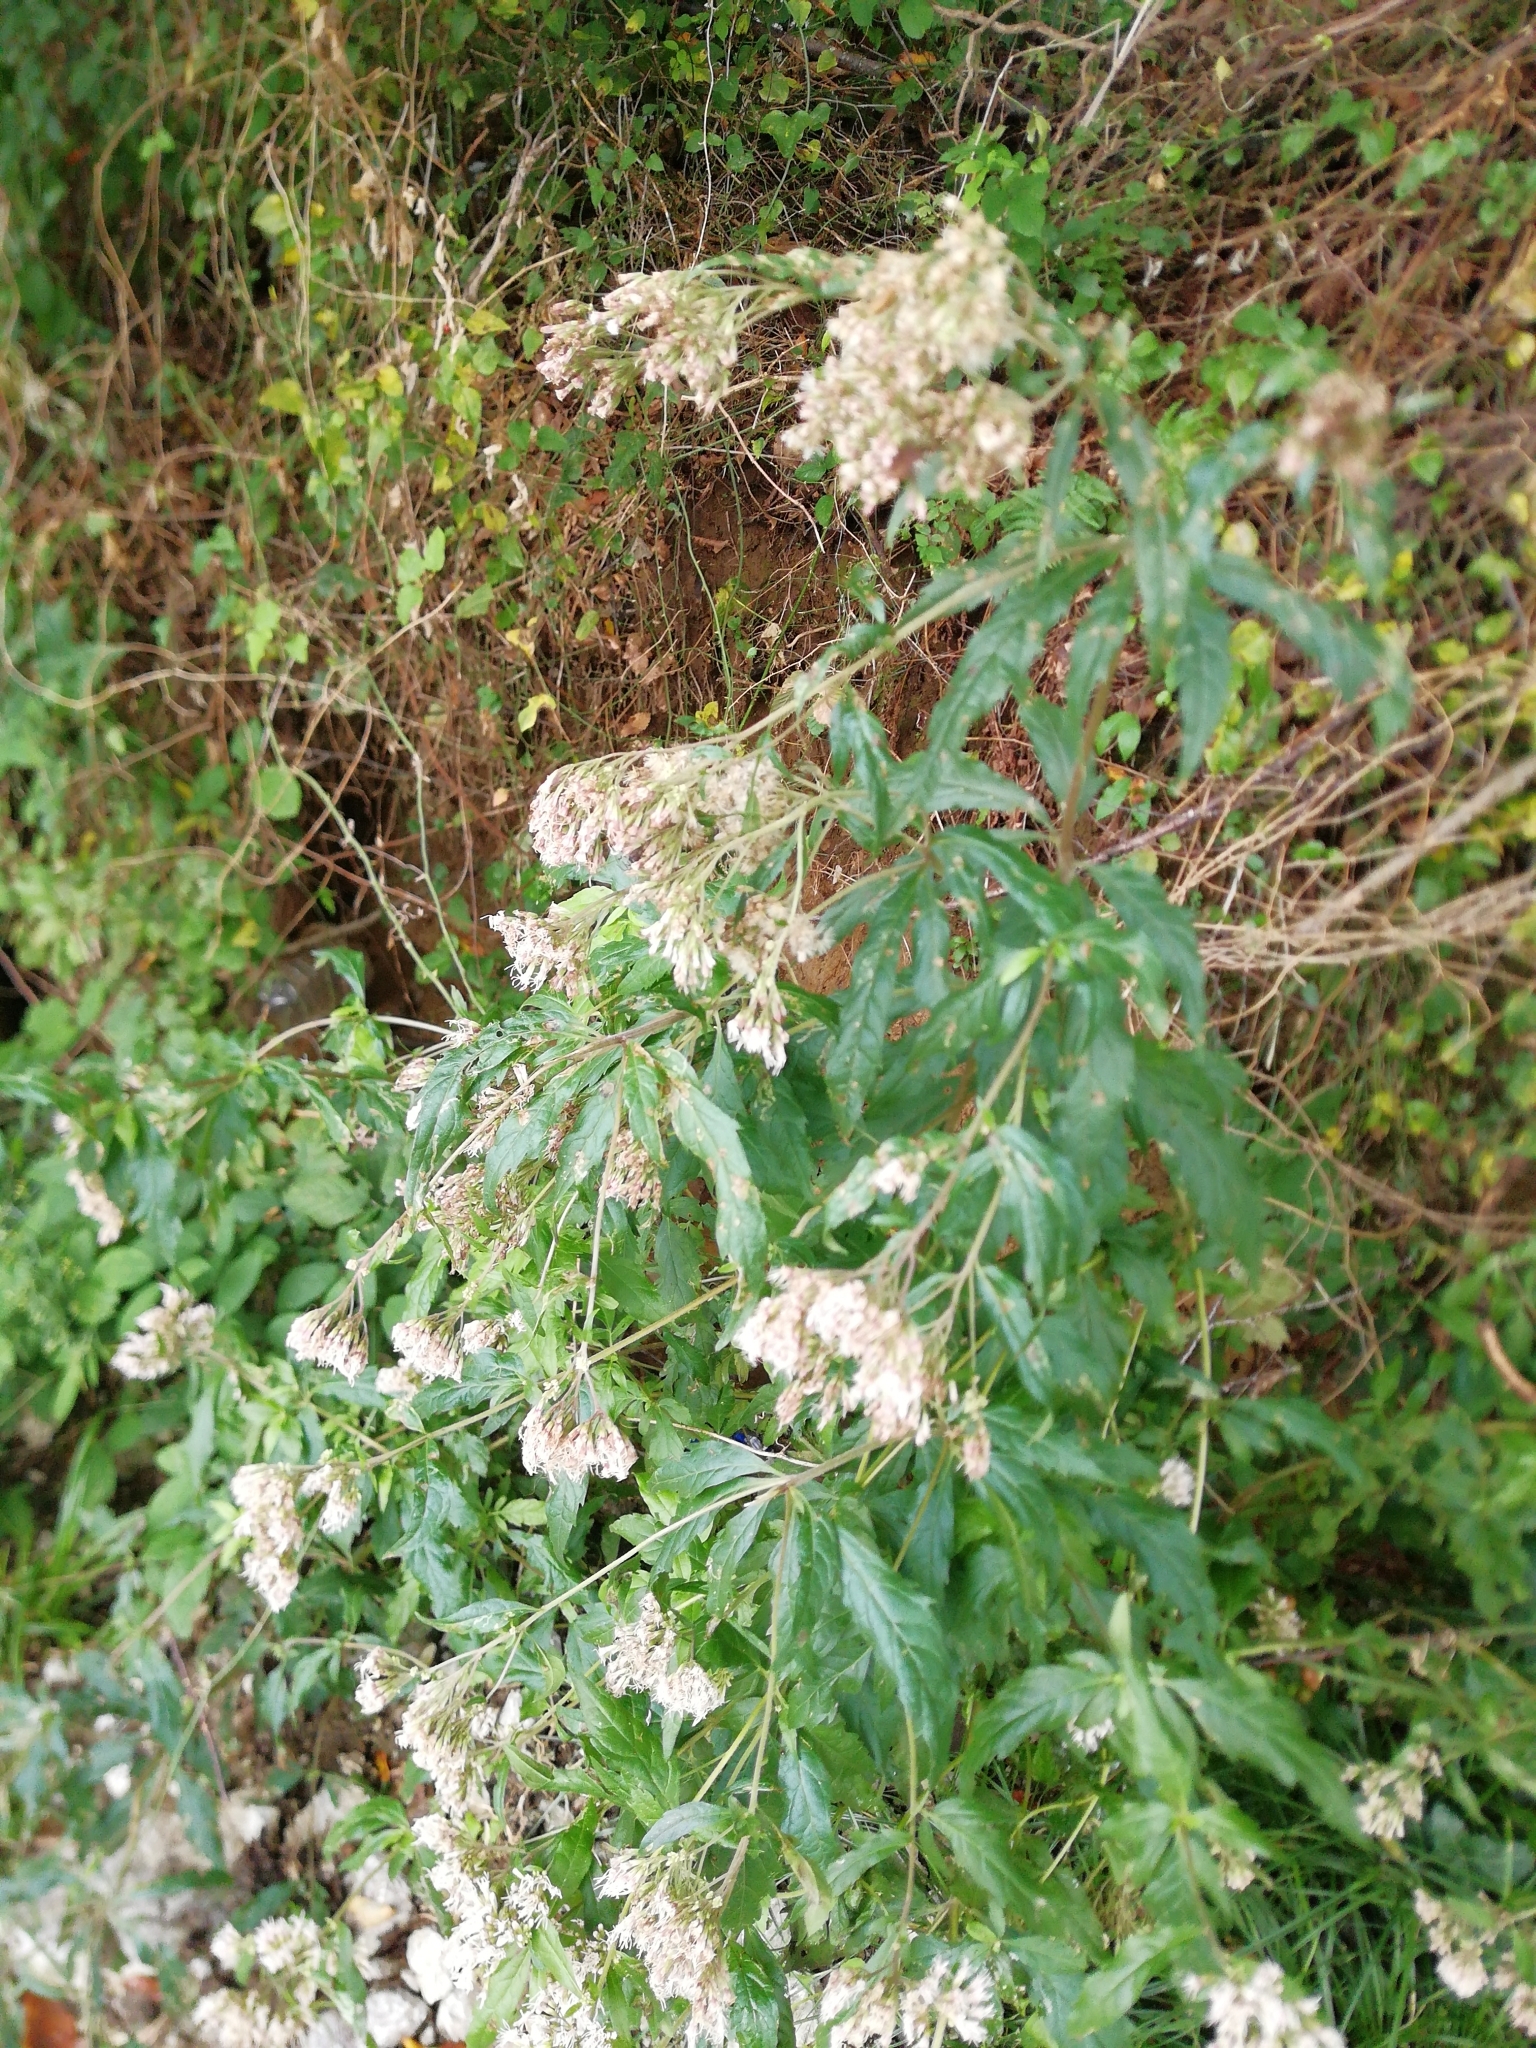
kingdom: Plantae
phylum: Tracheophyta
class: Magnoliopsida
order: Asterales
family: Asteraceae
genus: Eupatorium
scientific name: Eupatorium cannabinum
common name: Hemp-agrimony
